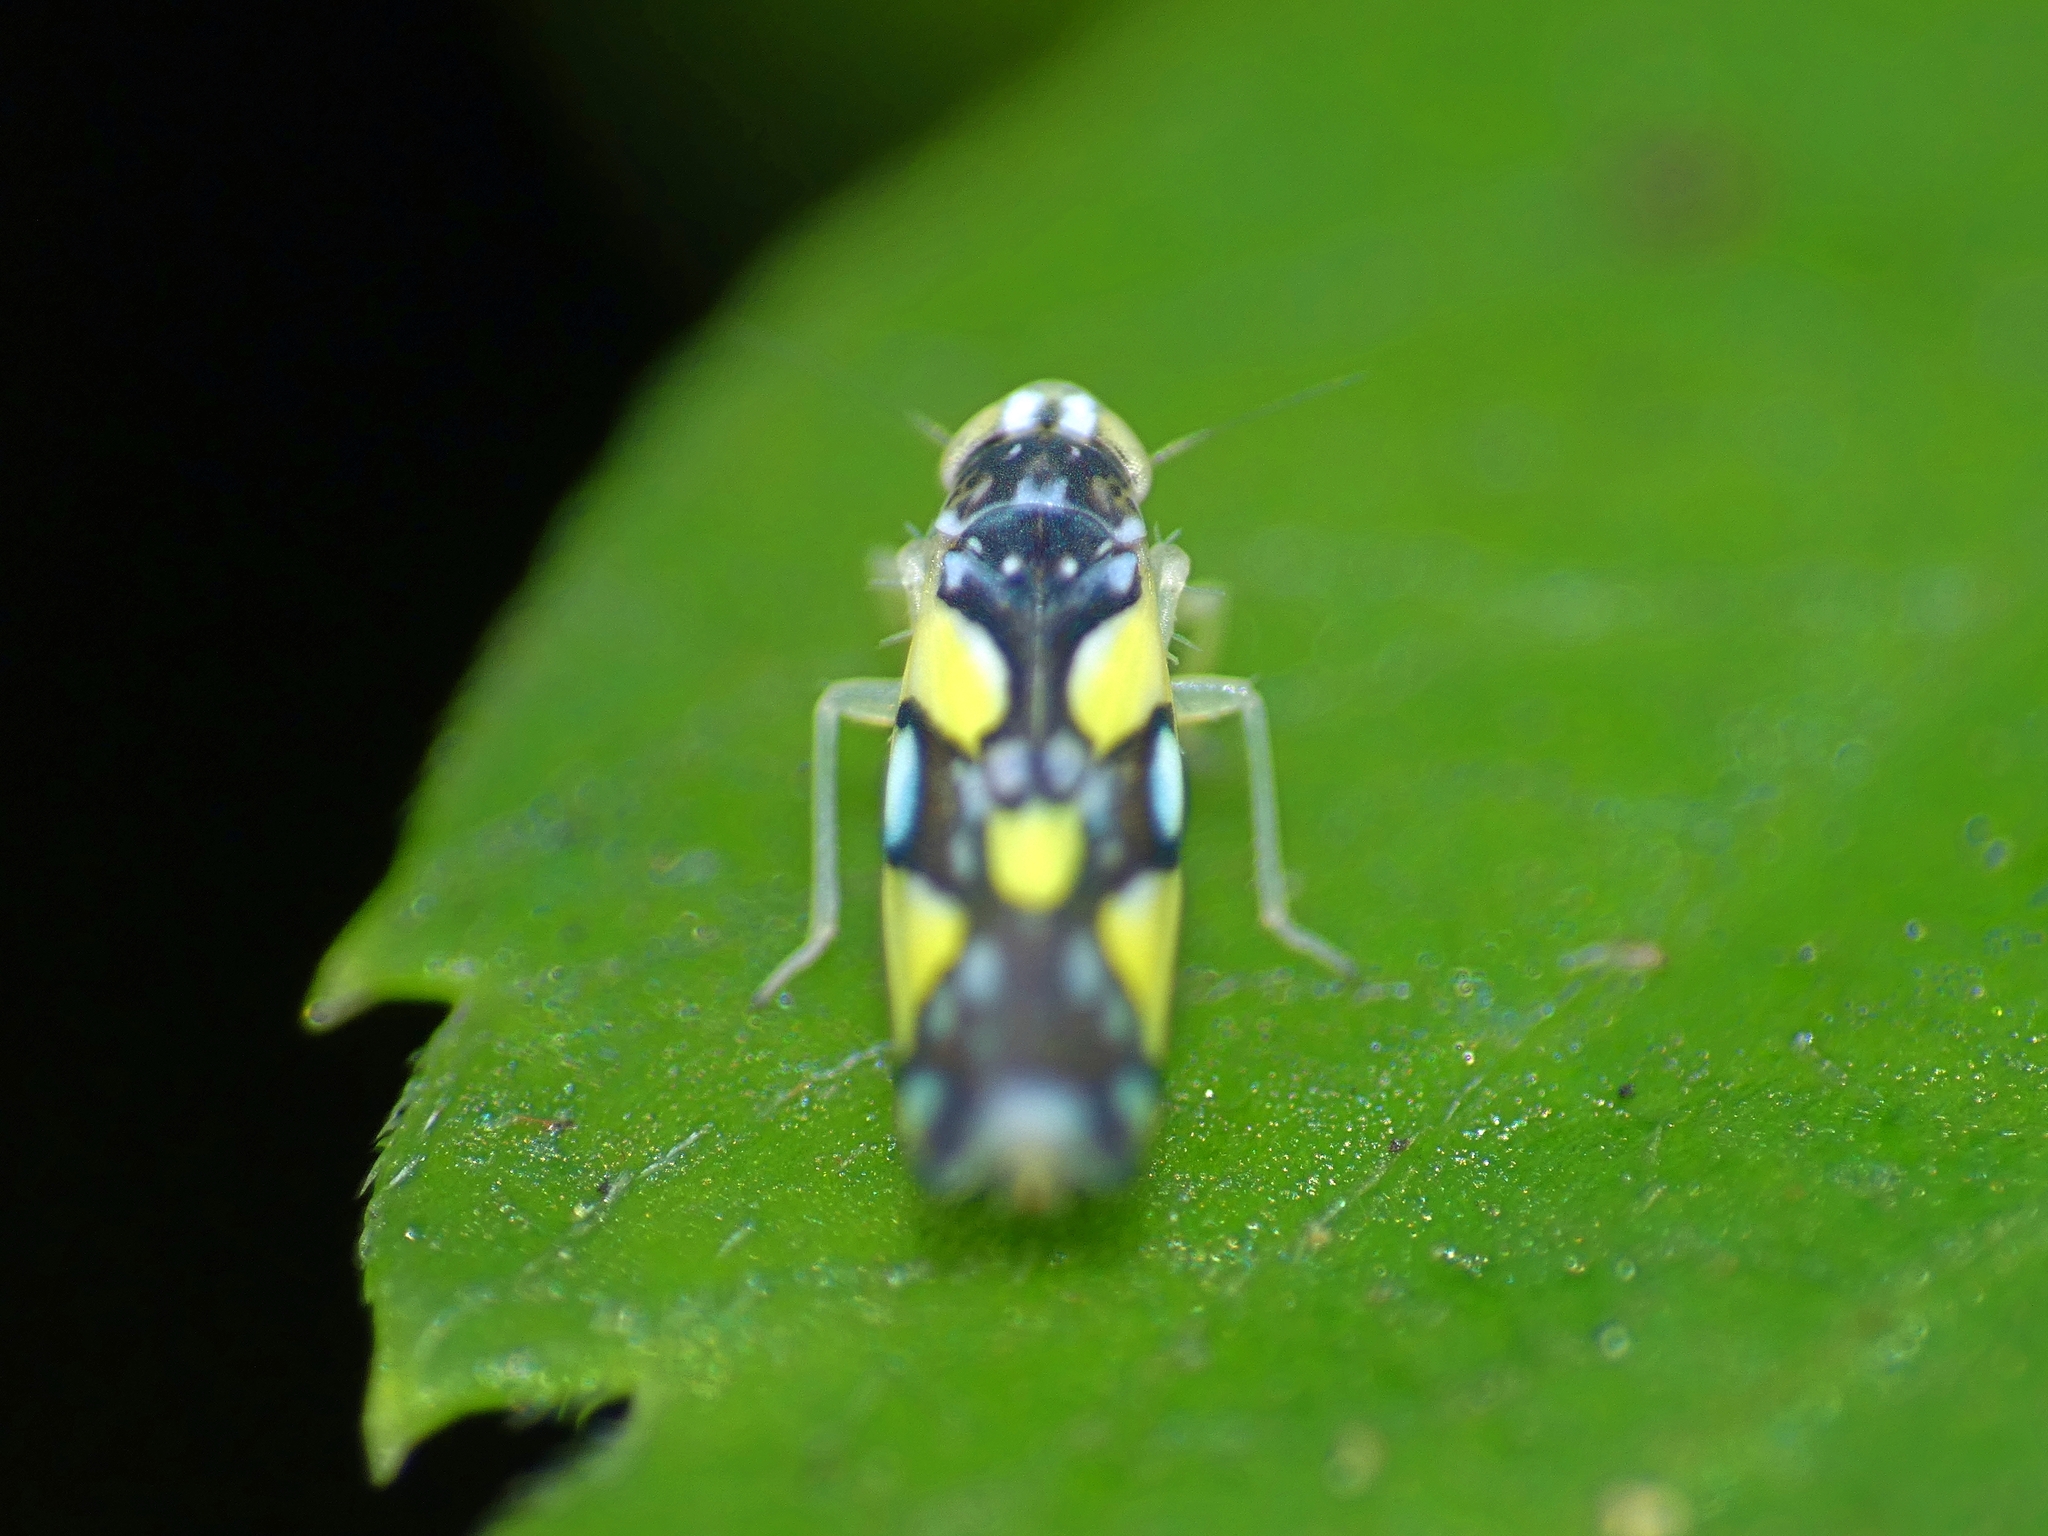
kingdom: Animalia
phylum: Arthropoda
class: Insecta
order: Hemiptera
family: Cicadellidae
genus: Protalebrella
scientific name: Protalebrella brasiliensis
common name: Brasilian leafhopper
